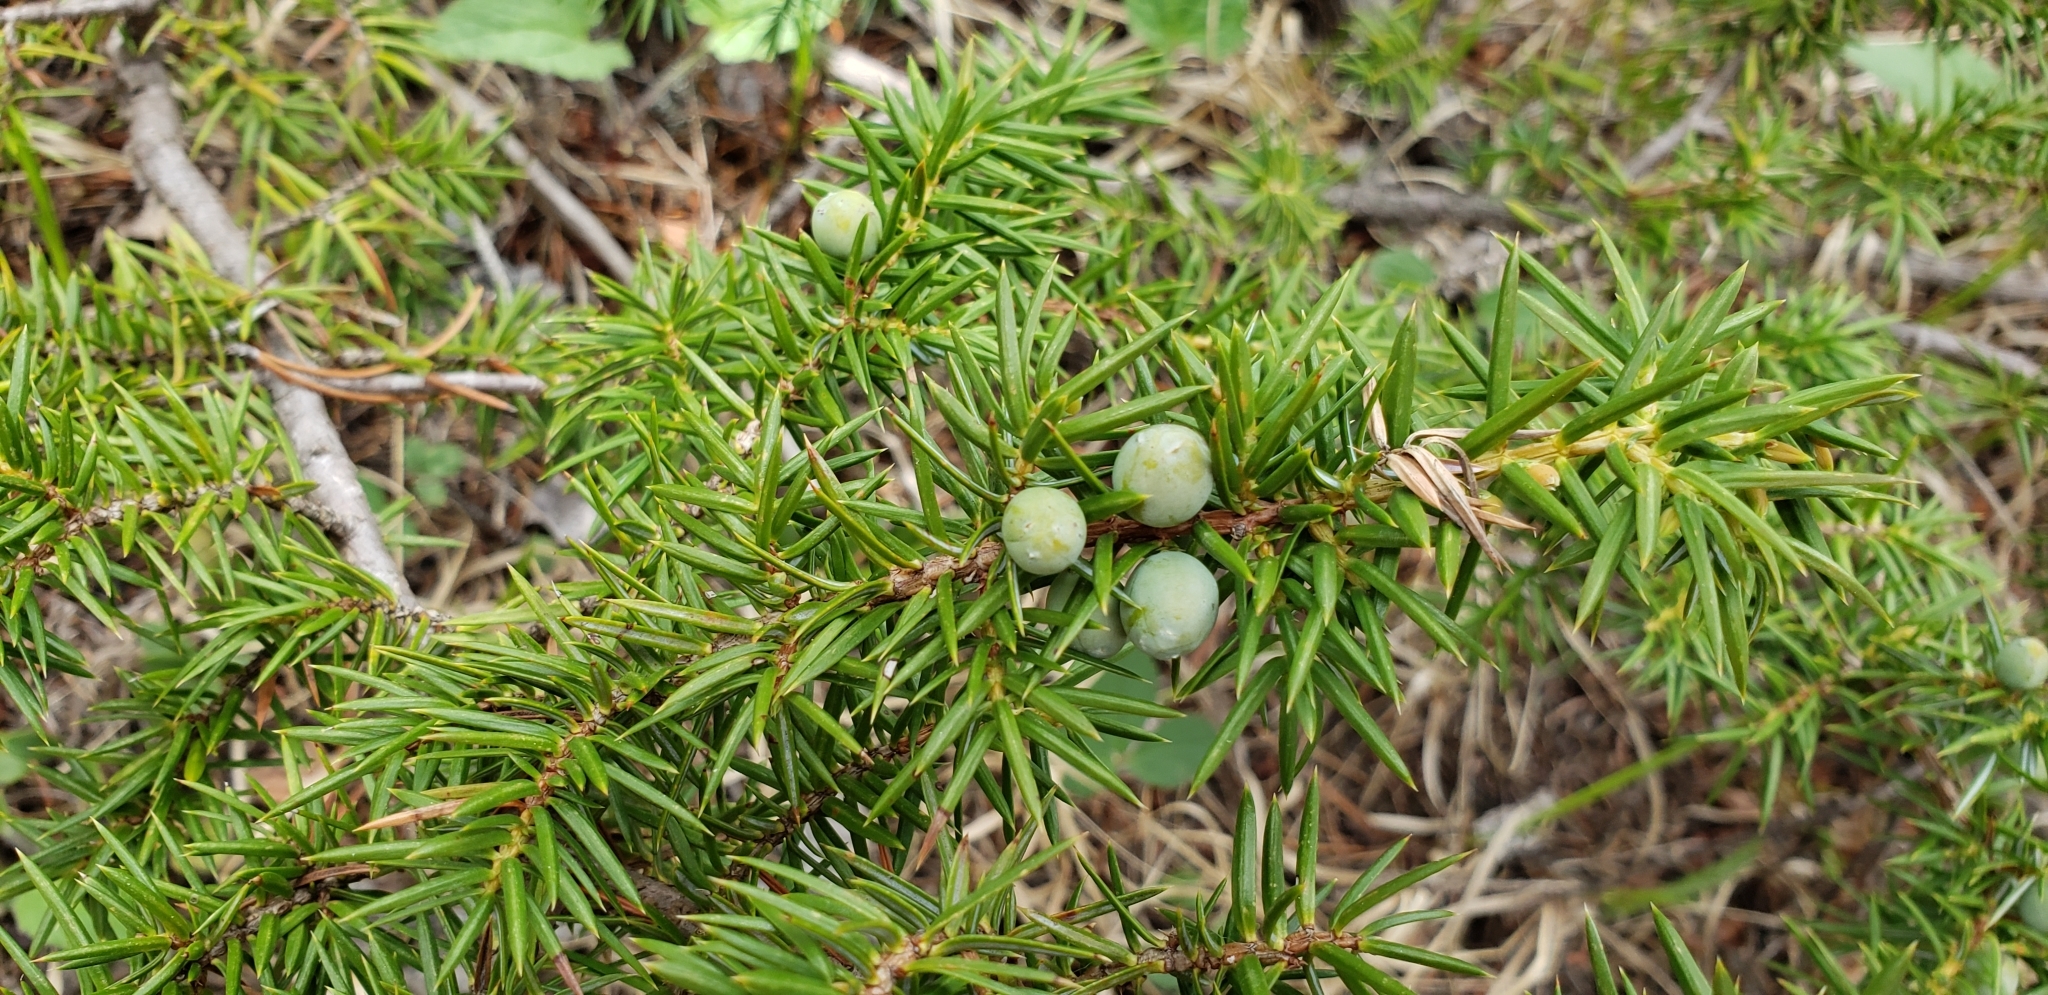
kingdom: Plantae
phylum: Tracheophyta
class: Pinopsida
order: Pinales
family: Cupressaceae
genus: Juniperus
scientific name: Juniperus communis
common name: Common juniper
